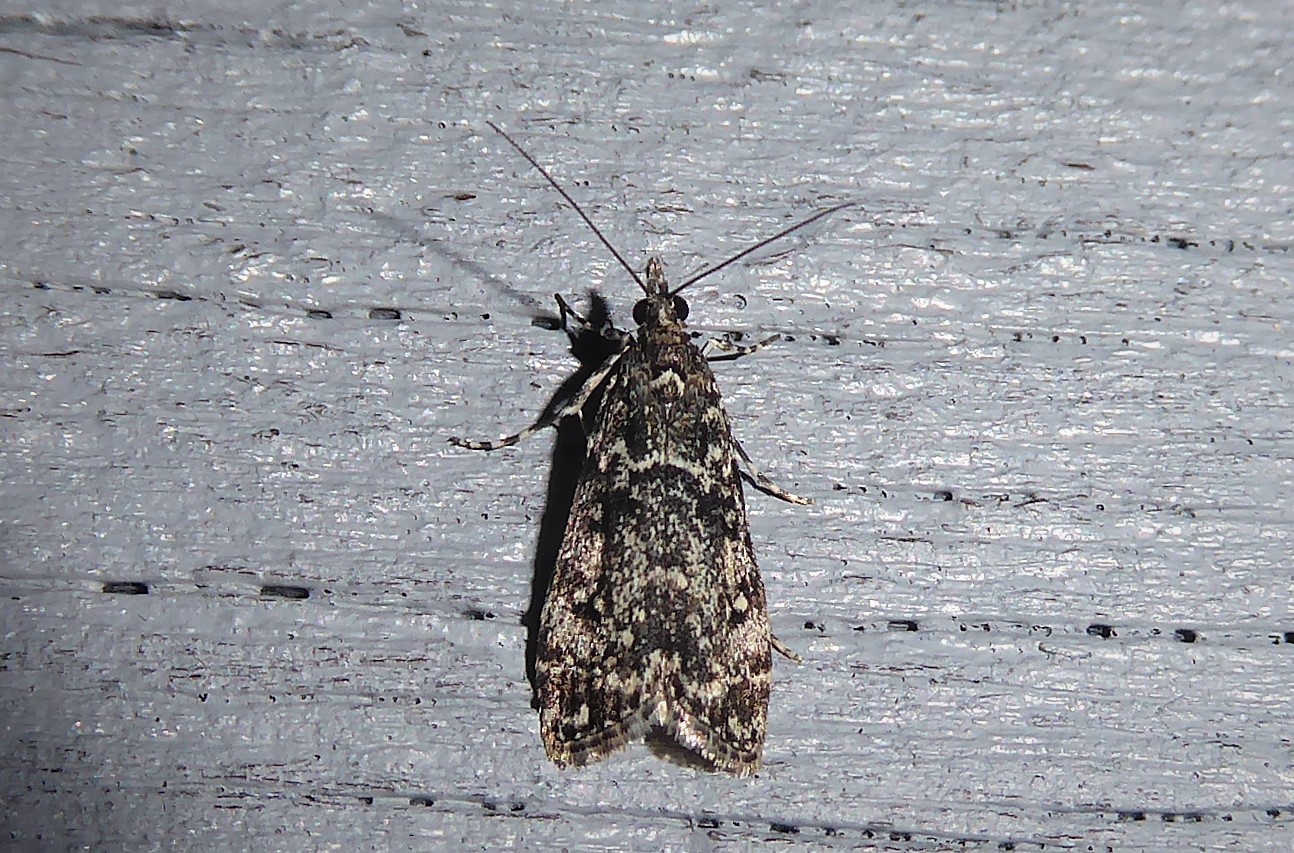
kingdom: Animalia
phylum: Arthropoda
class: Insecta
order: Lepidoptera
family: Crambidae
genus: Eudonia
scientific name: Eudonia philerga
